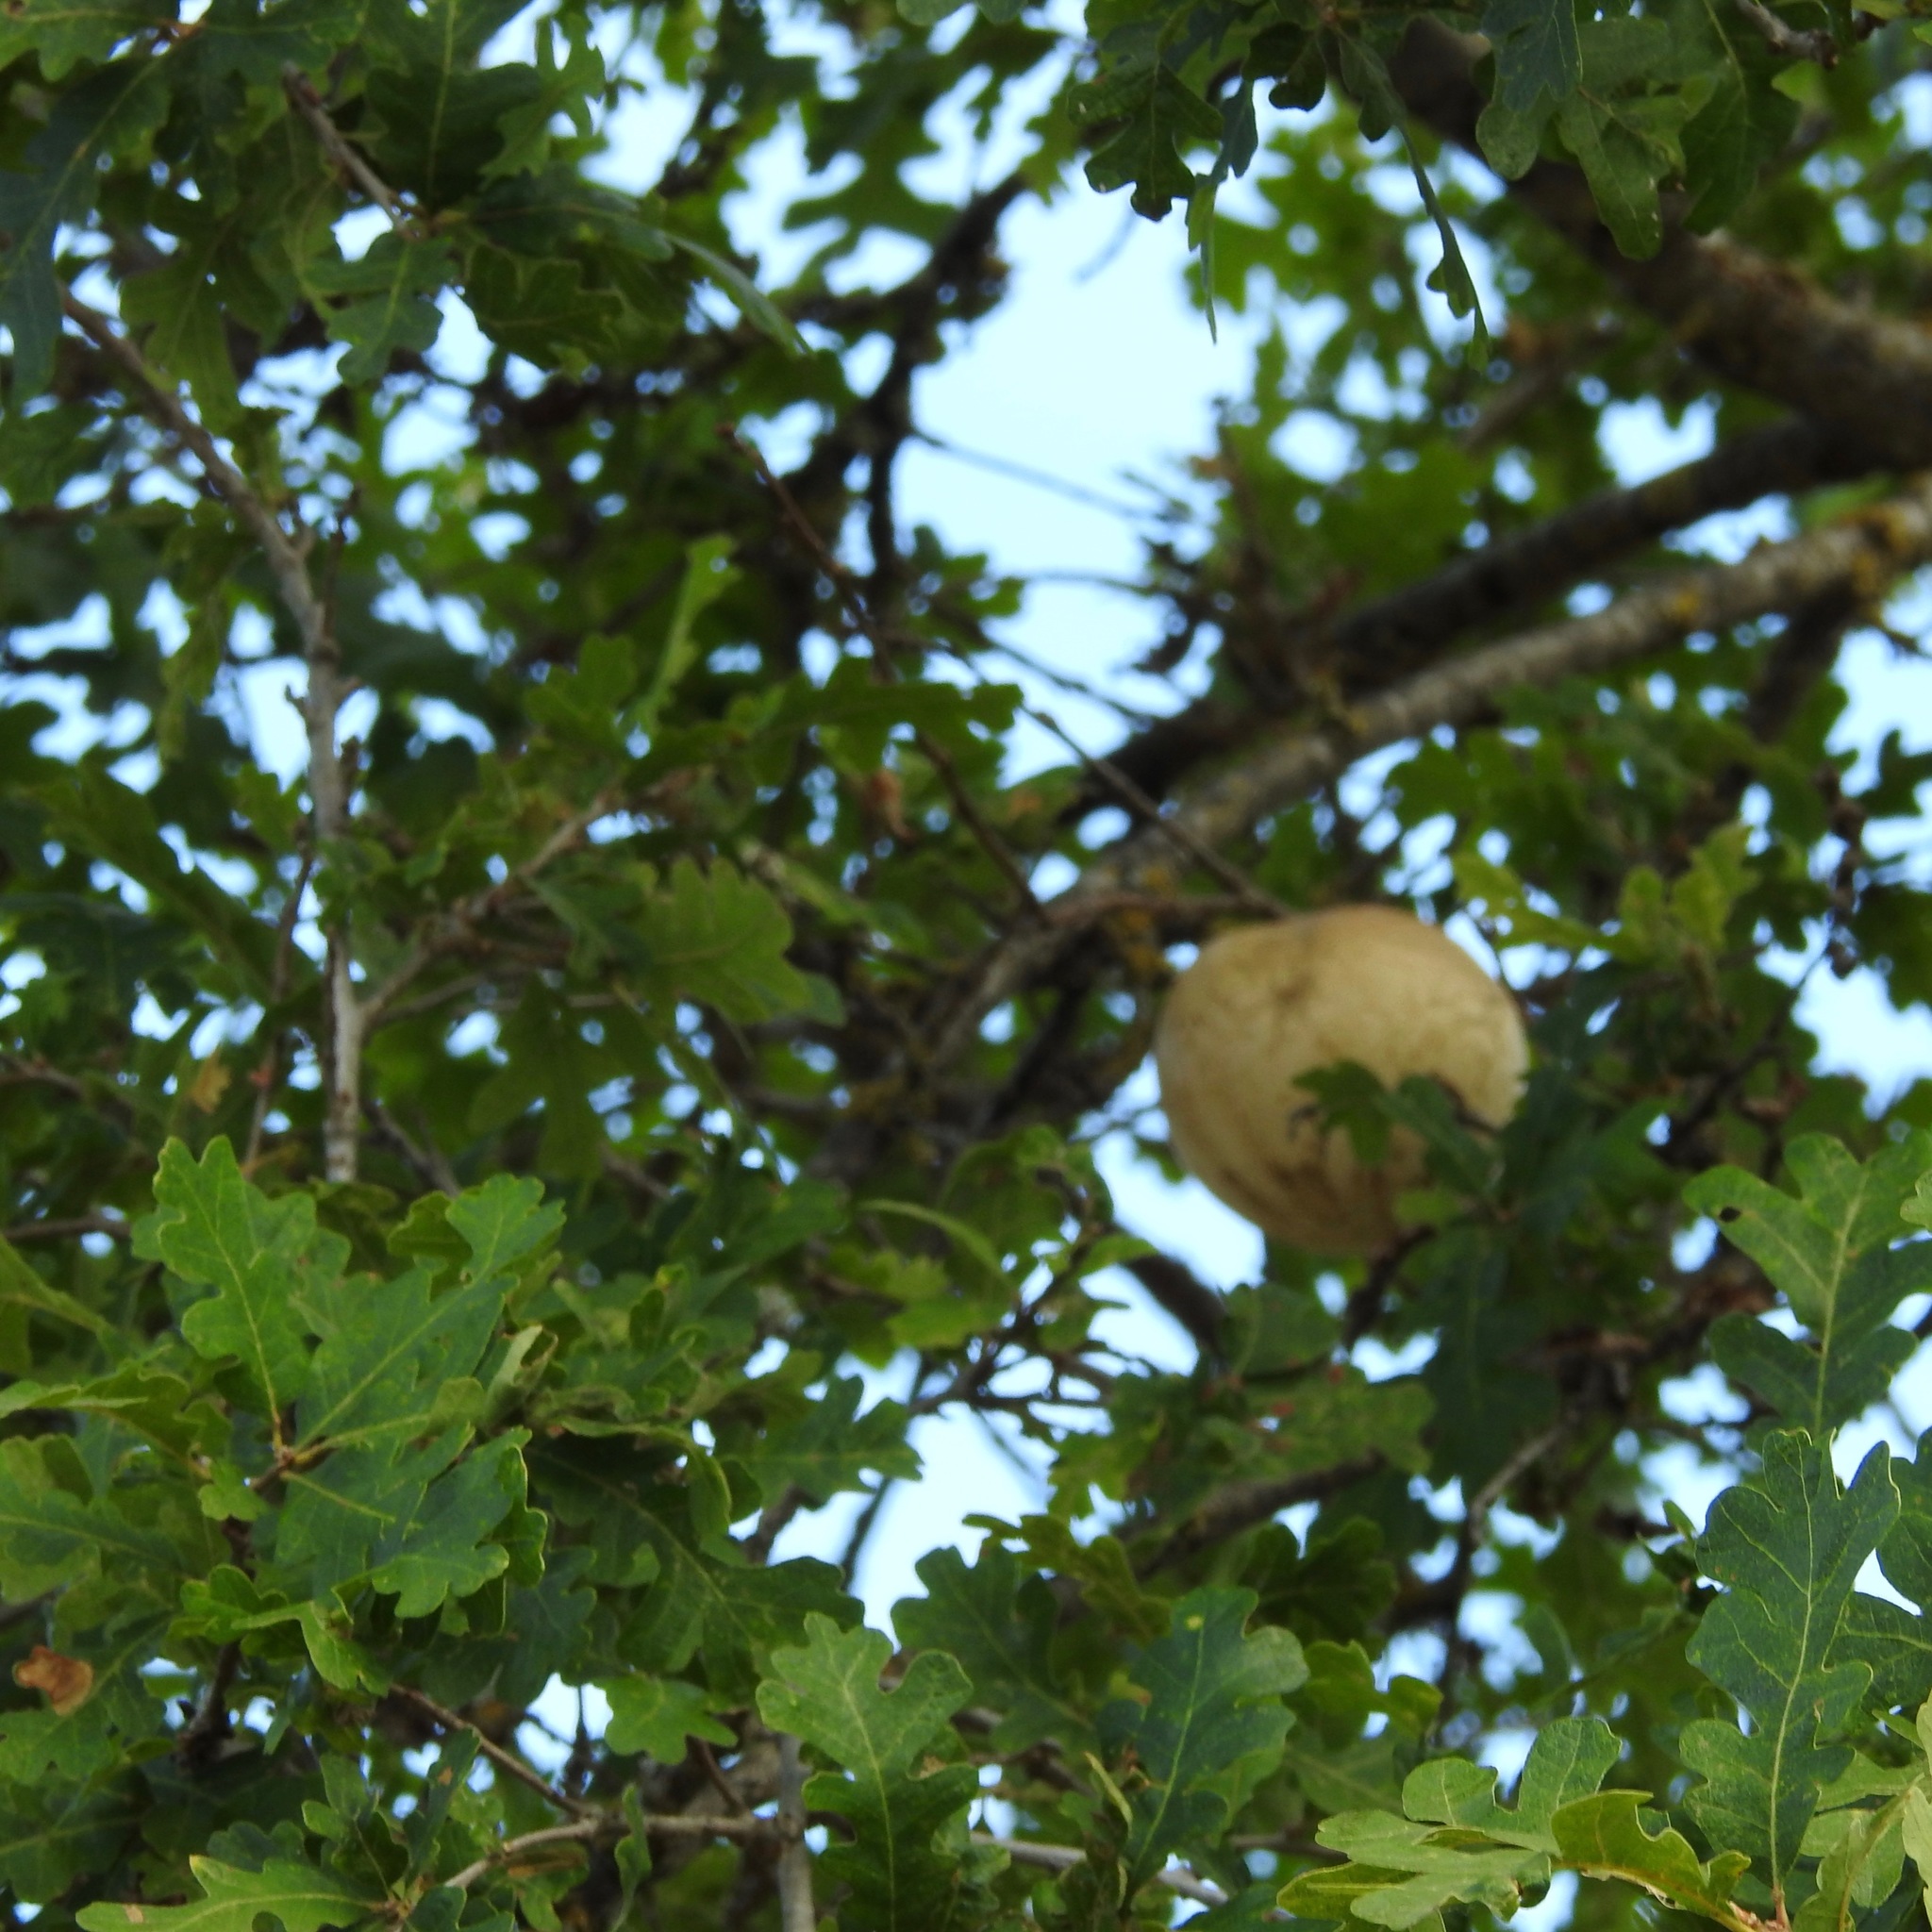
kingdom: Animalia
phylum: Arthropoda
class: Insecta
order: Hymenoptera
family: Cynipidae
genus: Andricus
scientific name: Andricus quercuscalifornicus
